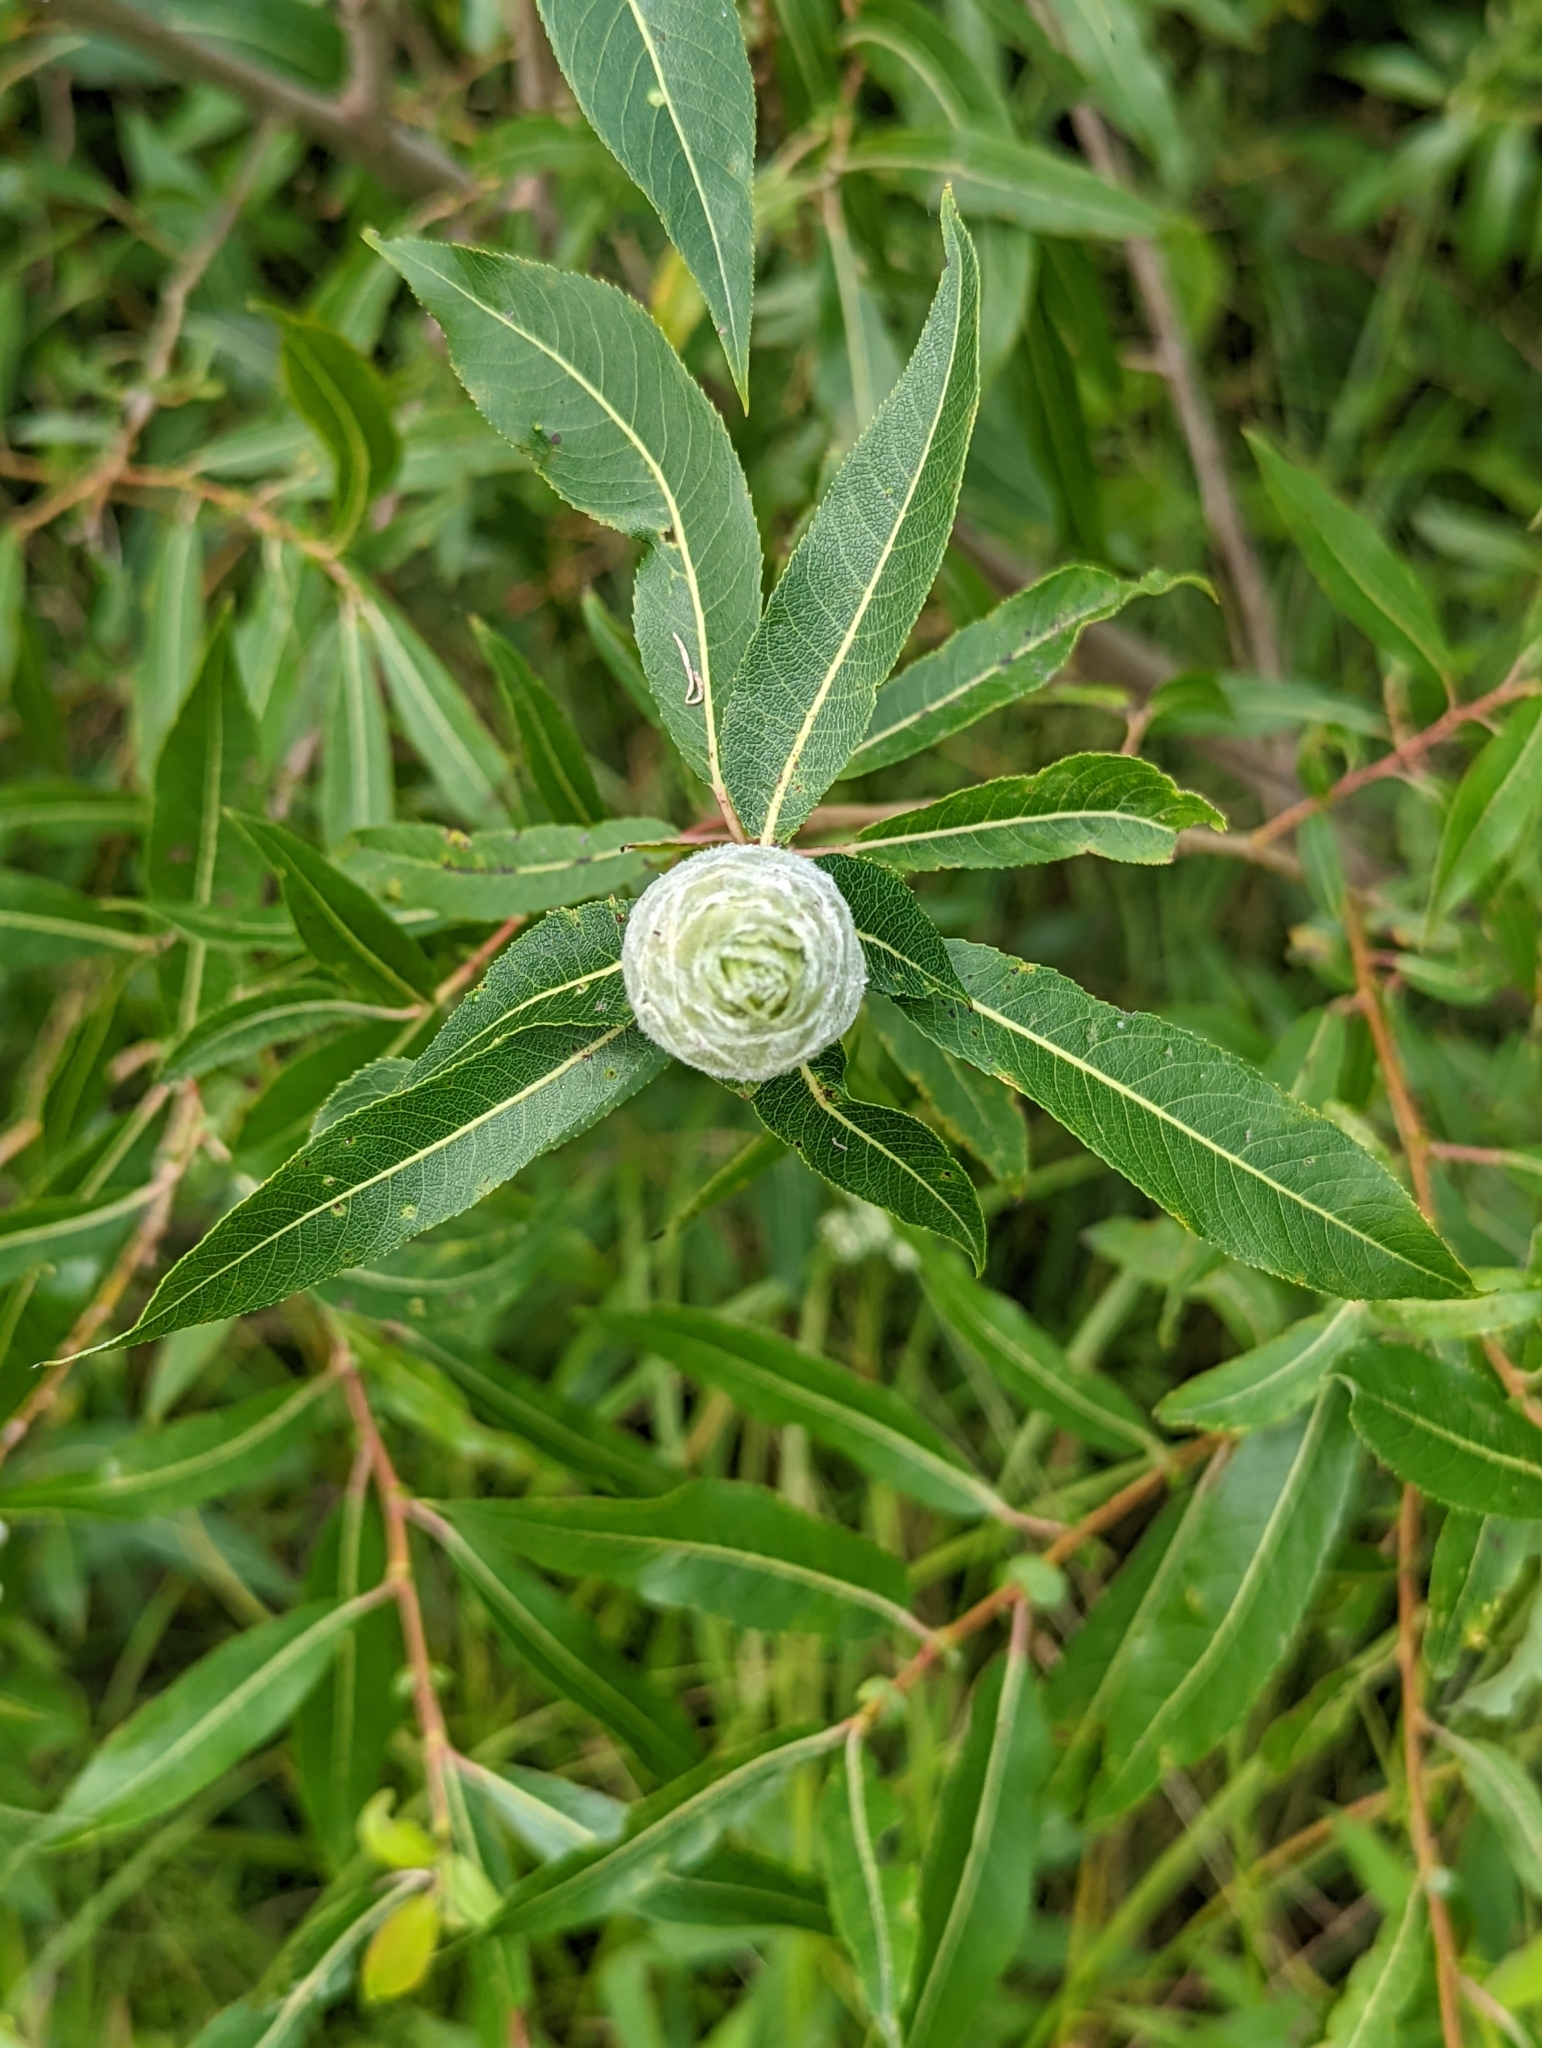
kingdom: Animalia
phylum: Arthropoda
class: Insecta
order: Diptera
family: Cecidomyiidae
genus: Rabdophaga
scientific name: Rabdophaga strobiloides
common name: Willow pinecone gall midge
